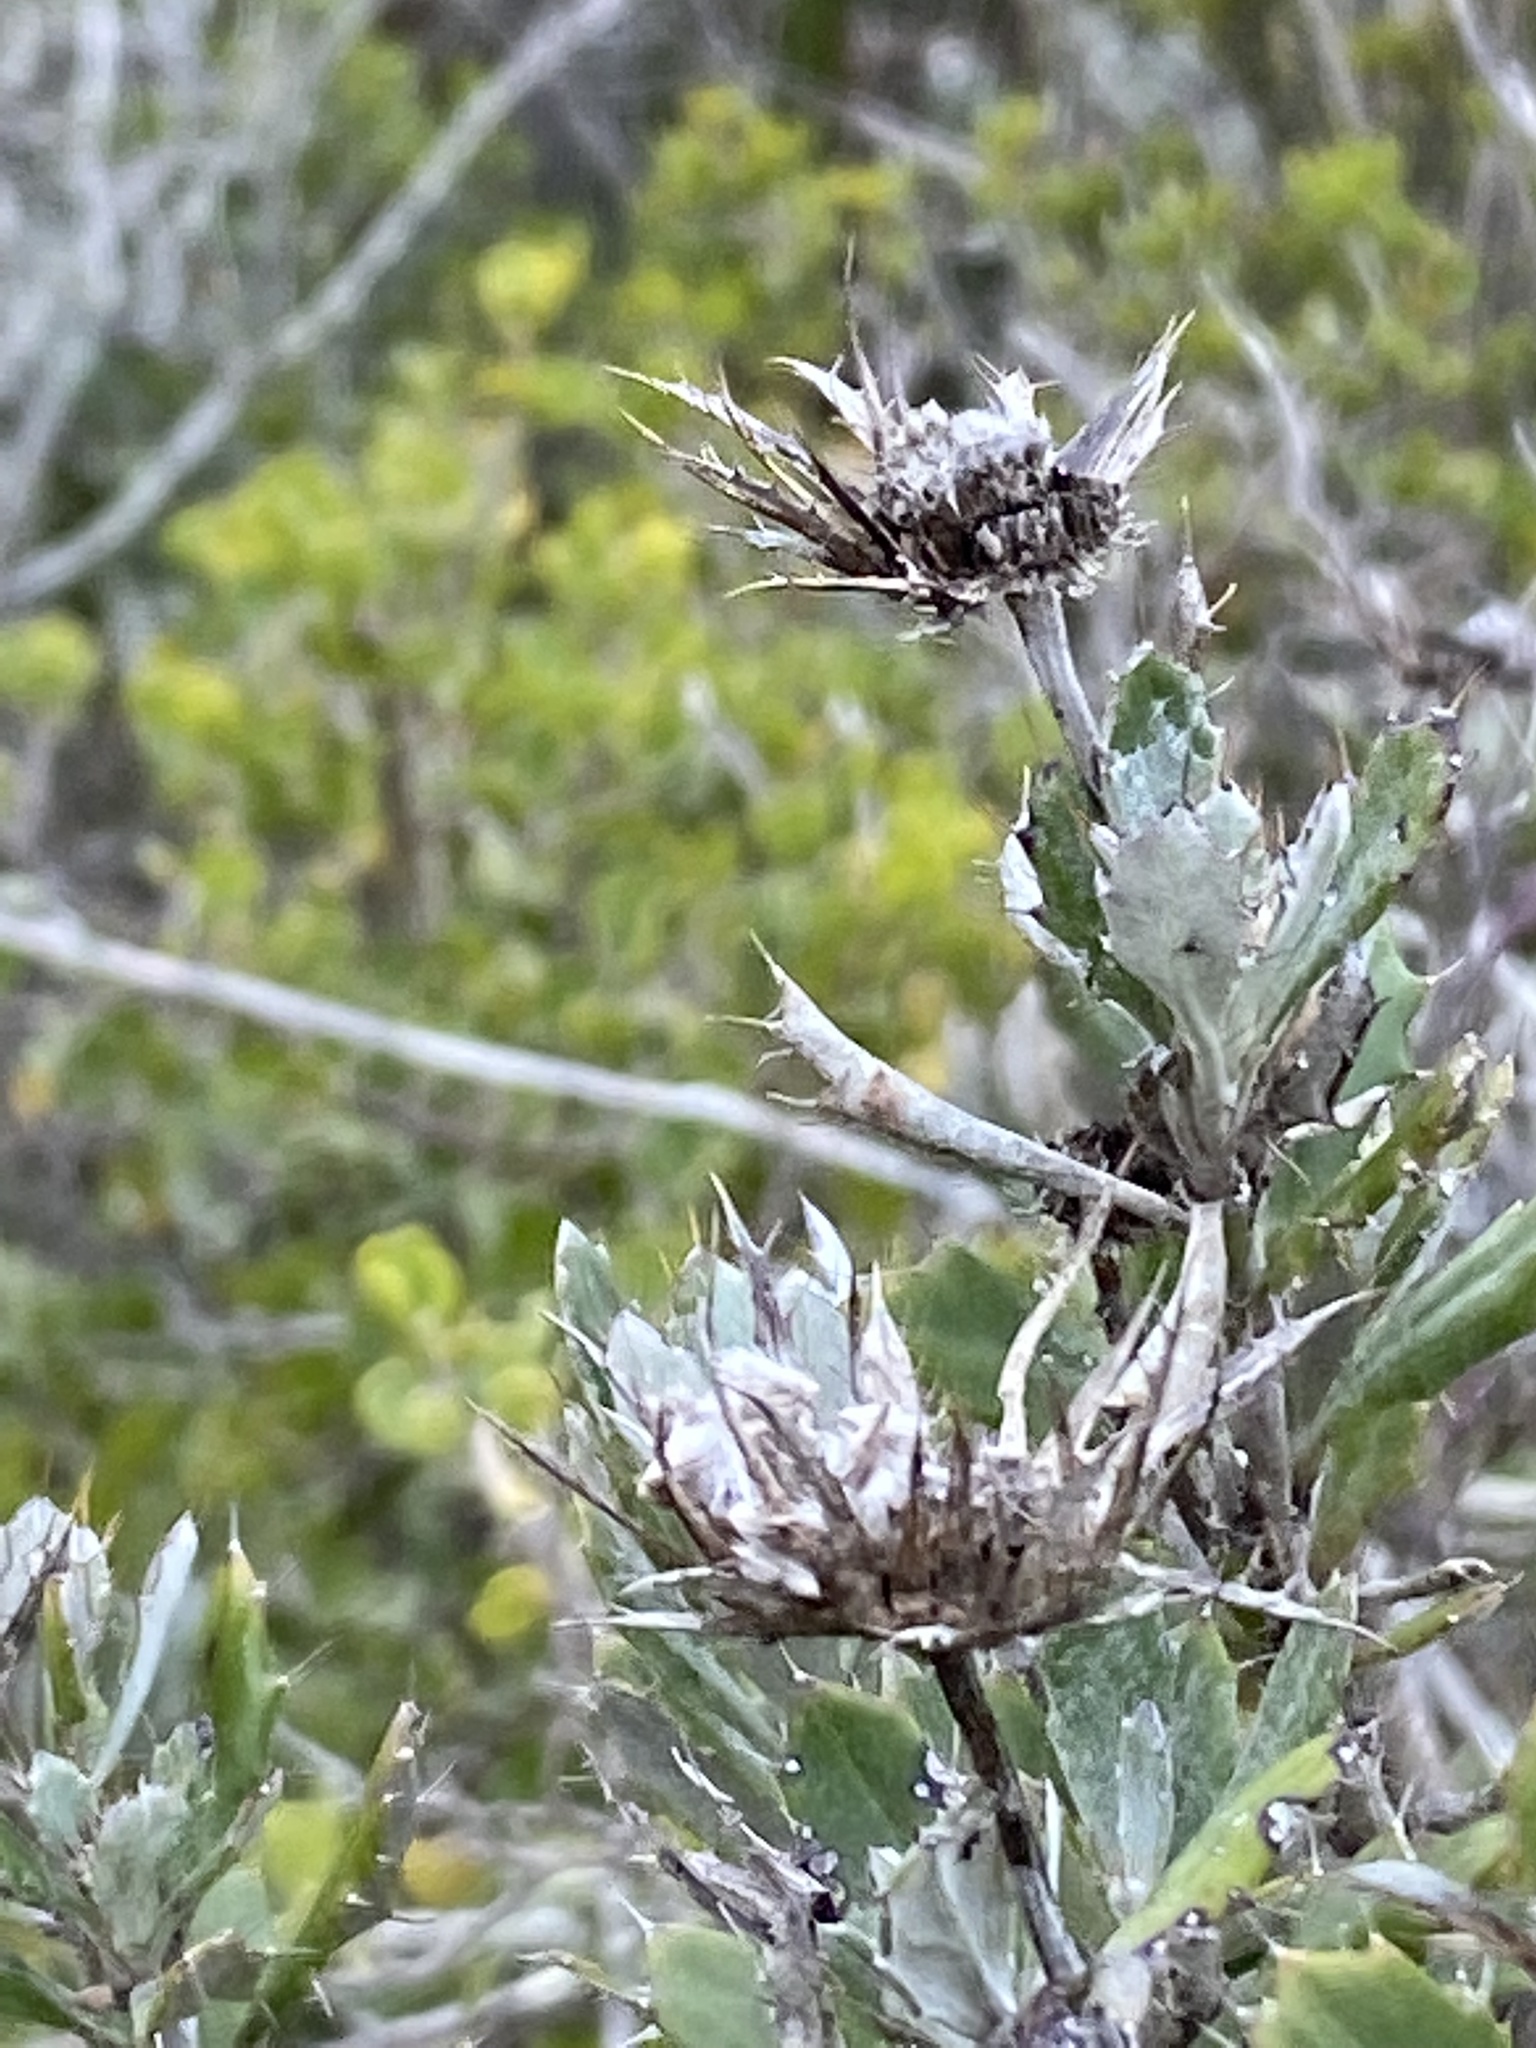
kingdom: Plantae
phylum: Tracheophyta
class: Magnoliopsida
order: Asterales
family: Asteraceae
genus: Berkheya
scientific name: Berkheya coriacea
